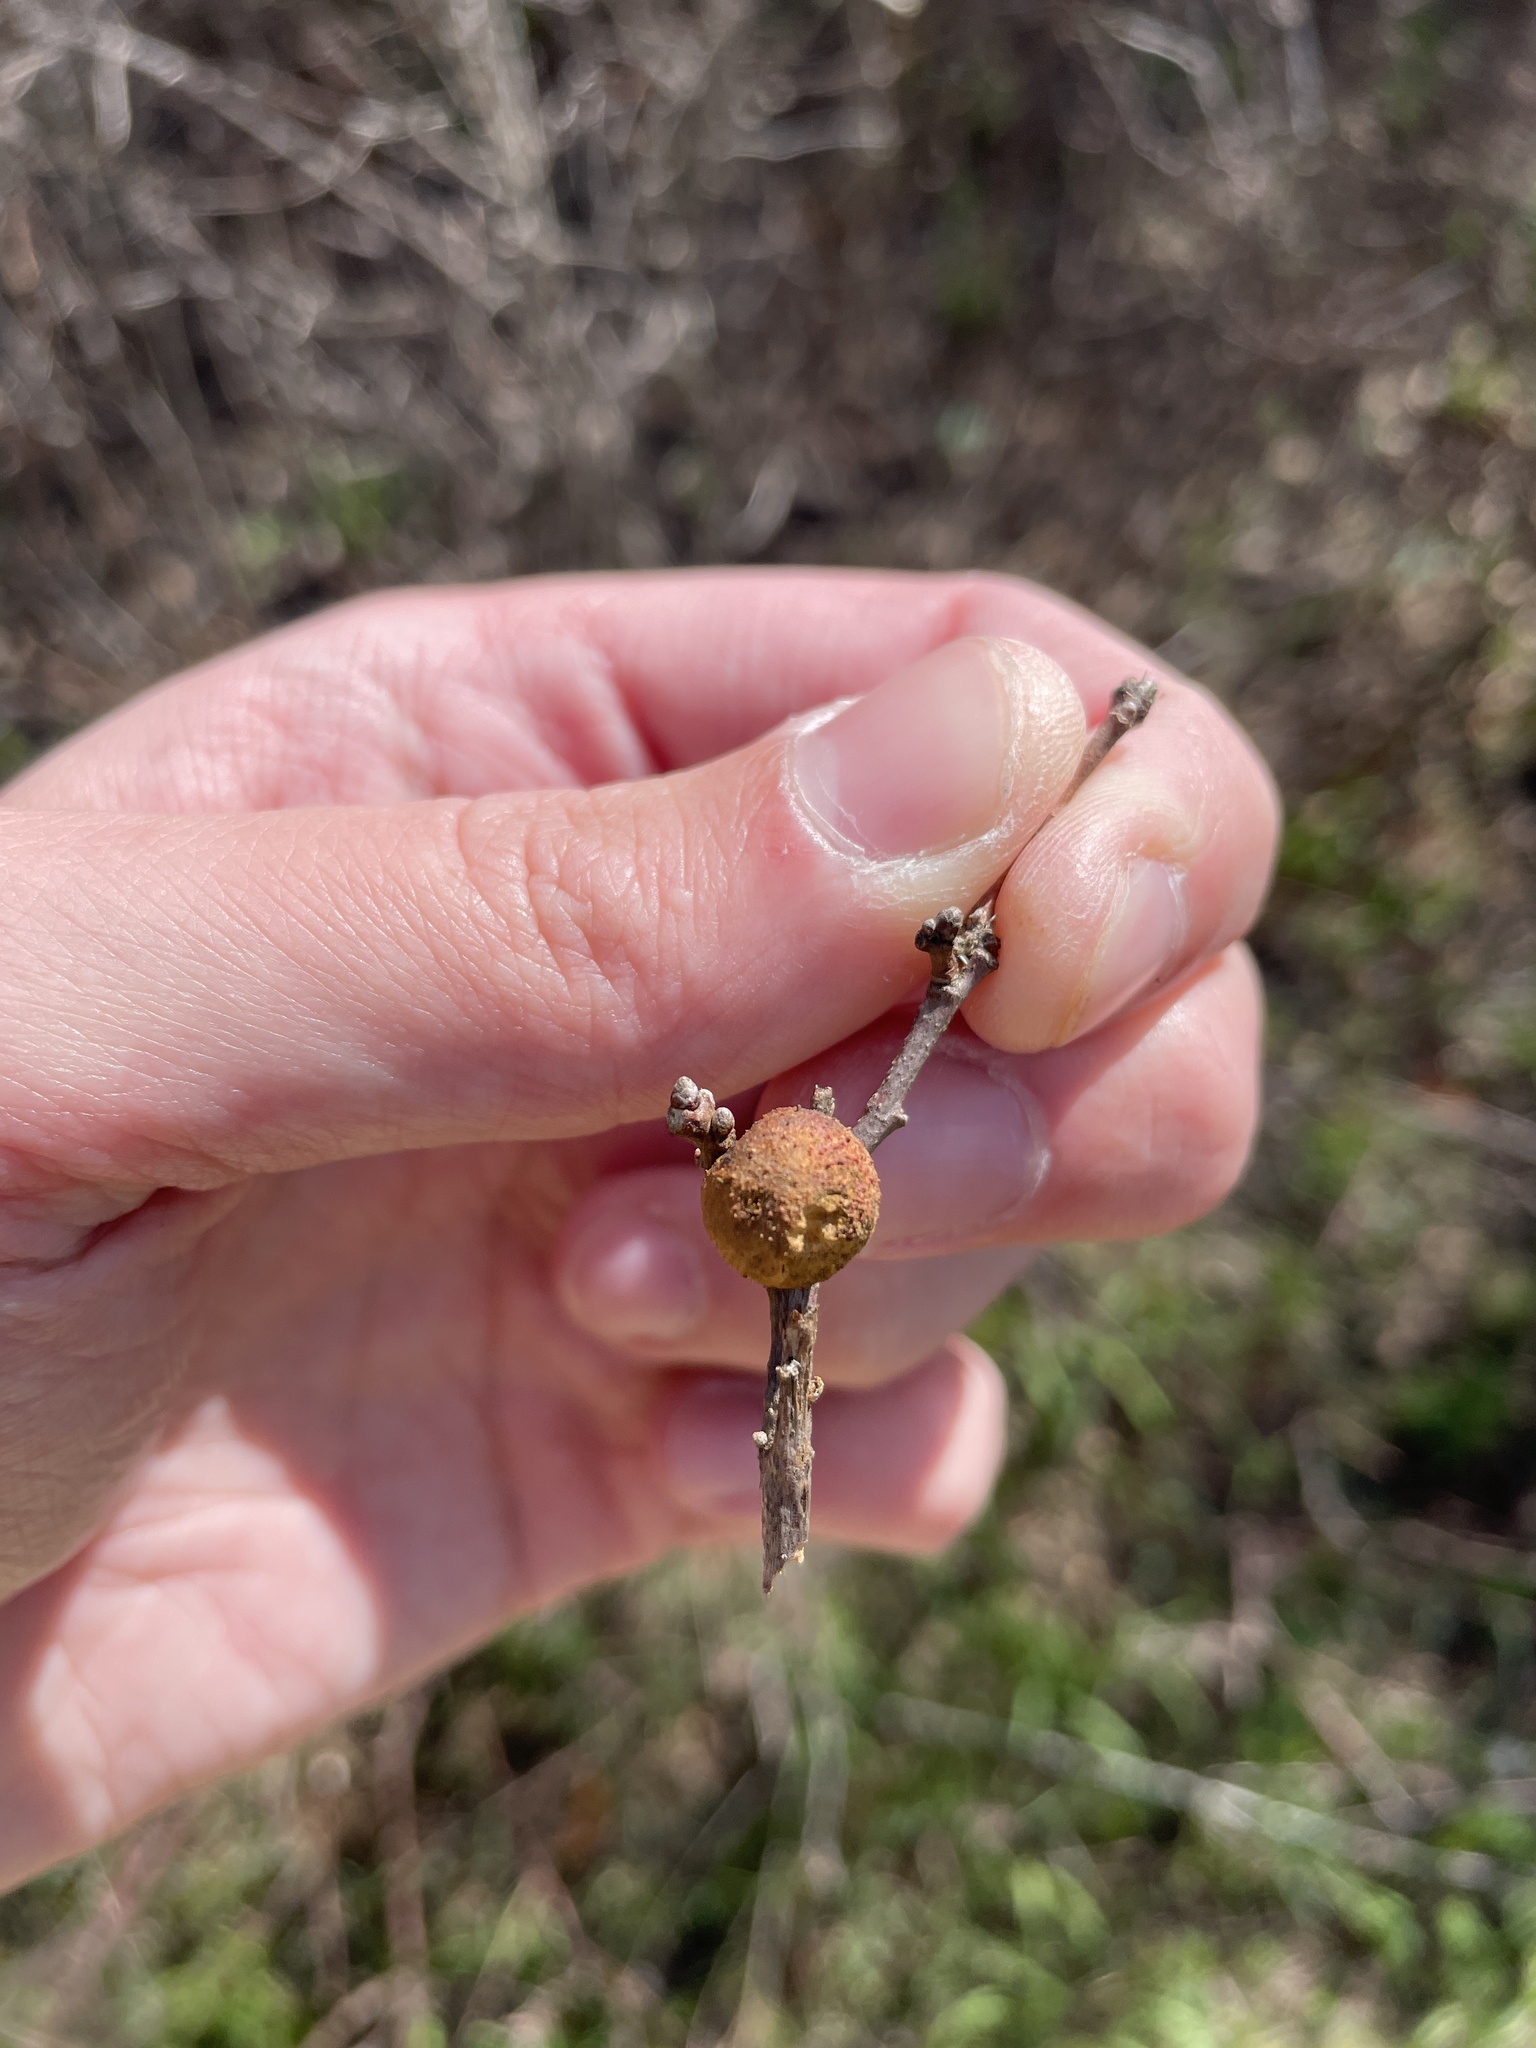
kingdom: Animalia
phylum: Arthropoda
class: Insecta
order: Hymenoptera
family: Cynipidae
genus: Disholcaspis
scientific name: Disholcaspis
